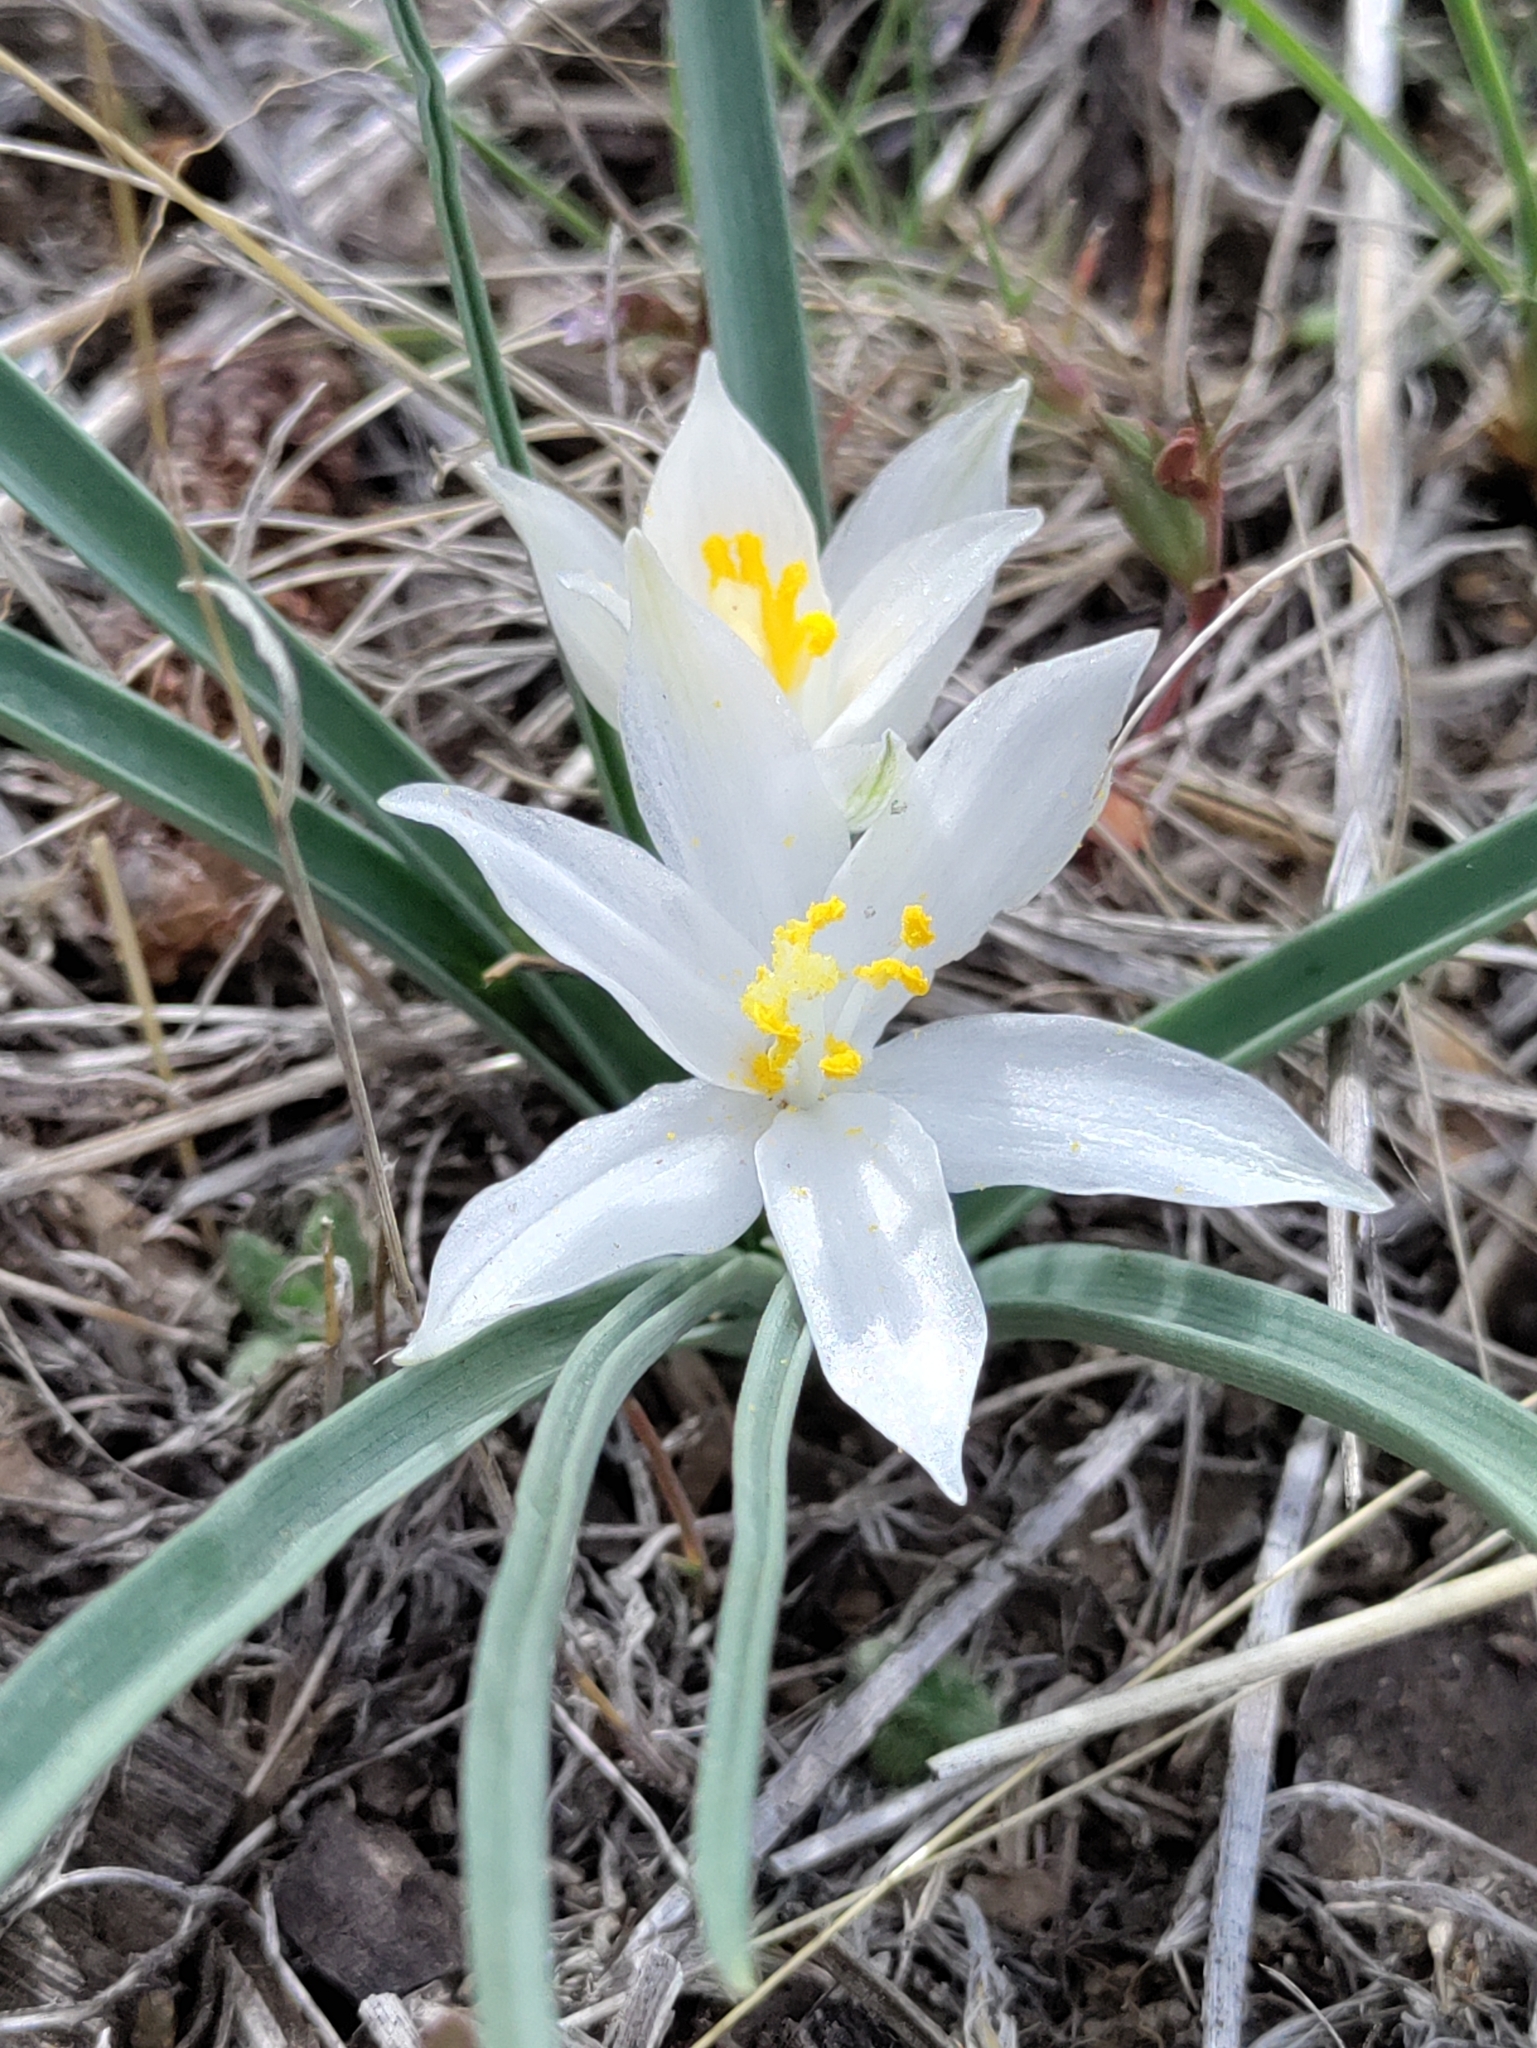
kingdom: Plantae
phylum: Tracheophyta
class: Liliopsida
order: Asparagales
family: Asparagaceae
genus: Leucocrinum
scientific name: Leucocrinum montanum
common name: Mountain-lily
